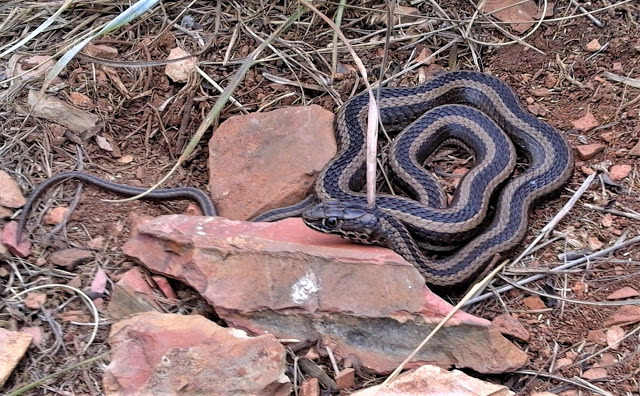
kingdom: Animalia
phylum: Chordata
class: Squamata
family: Psammophiidae
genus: Psammophis
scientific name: Psammophis crucifer
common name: Cross-marked grass snake
